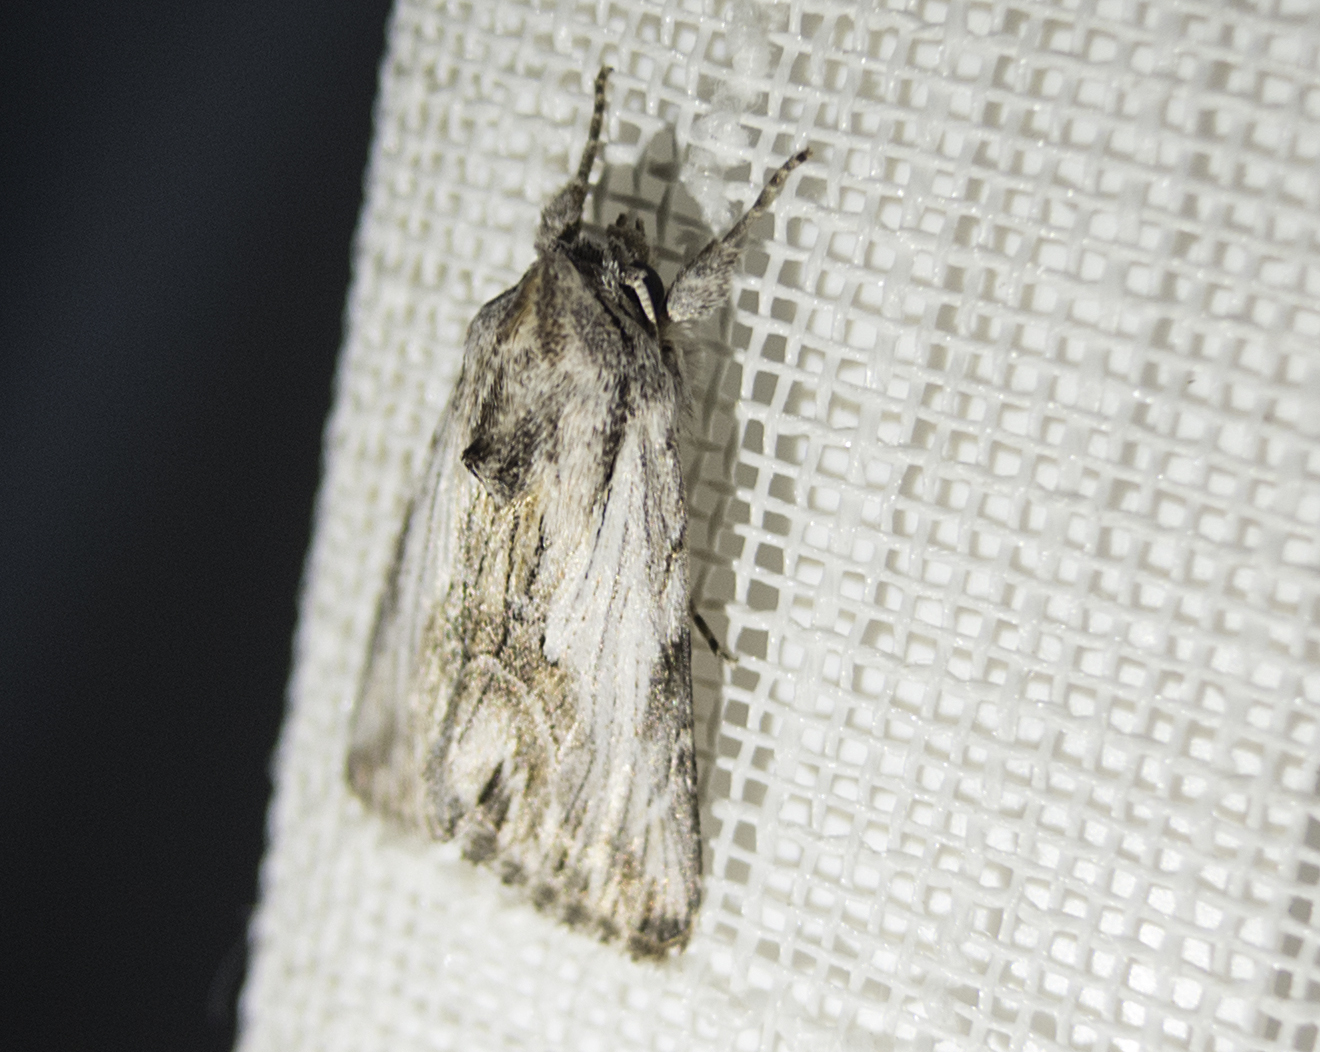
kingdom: Animalia
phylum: Arthropoda
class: Insecta
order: Lepidoptera
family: Noctuidae
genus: Calophasia
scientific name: Calophasia platyptera
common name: Antirrhinum brocade
